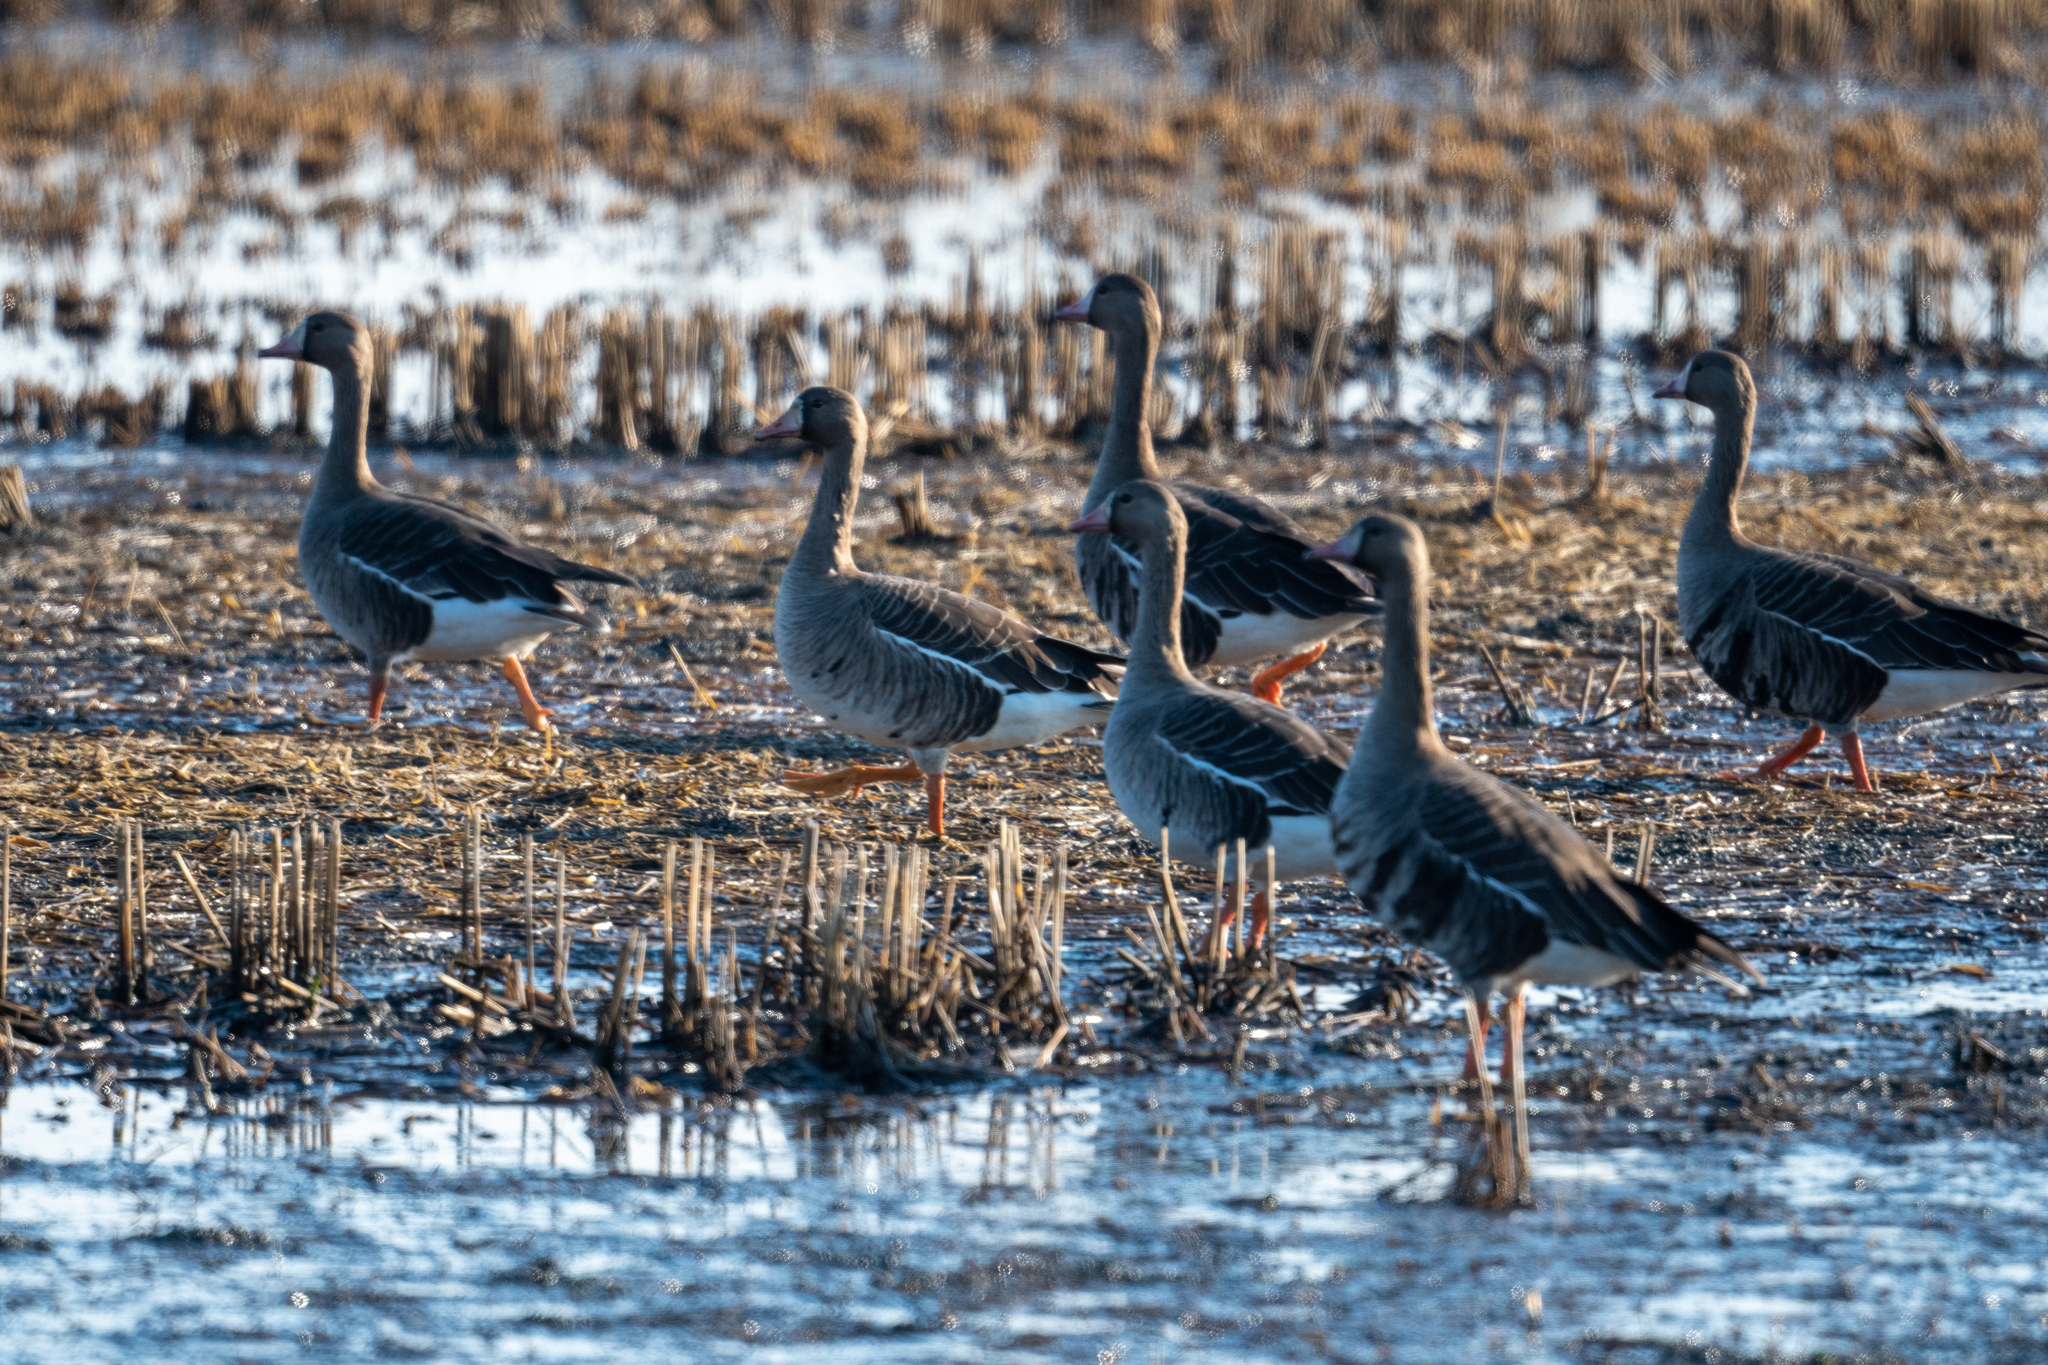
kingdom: Animalia
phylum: Chordata
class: Aves
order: Anseriformes
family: Anatidae
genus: Anser
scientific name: Anser albifrons
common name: Greater white-fronted goose
